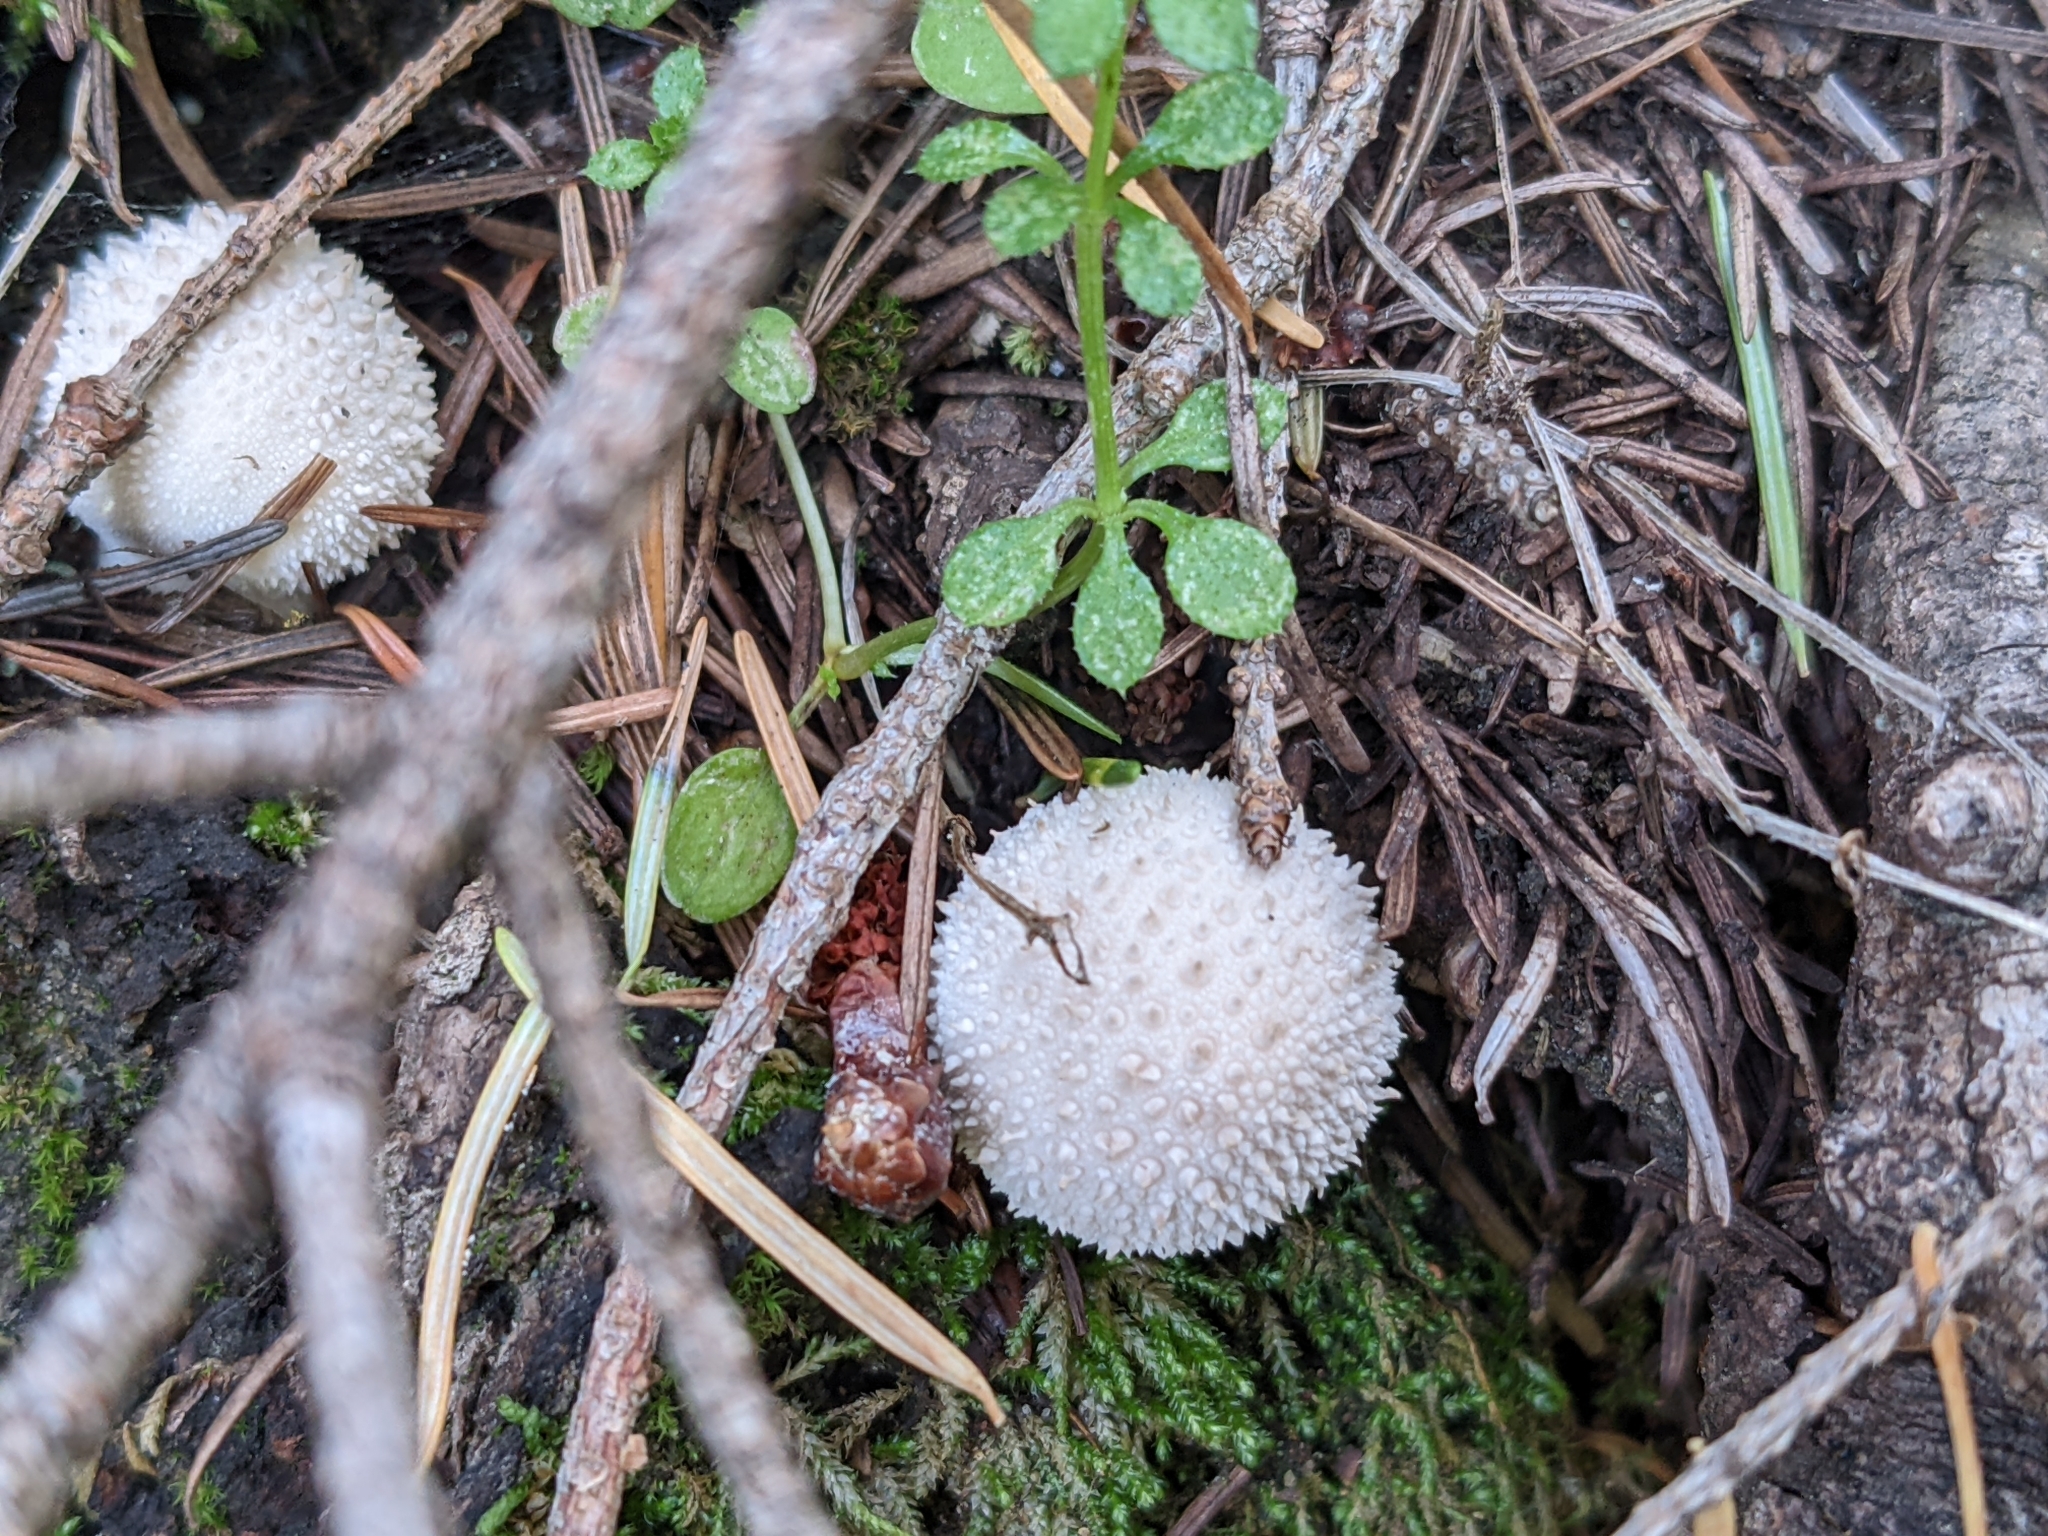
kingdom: Fungi
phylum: Basidiomycota
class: Agaricomycetes
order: Agaricales
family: Lycoperdaceae
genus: Lycoperdon
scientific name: Lycoperdon perlatum
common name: Common puffball
